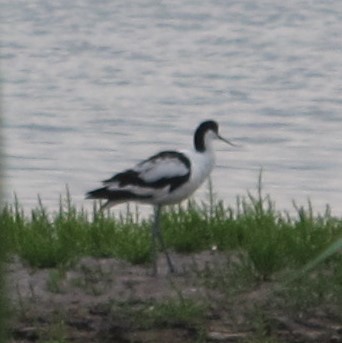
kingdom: Animalia
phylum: Chordata
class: Aves
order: Charadriiformes
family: Recurvirostridae
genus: Recurvirostra
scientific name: Recurvirostra avosetta
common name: Pied avocet
